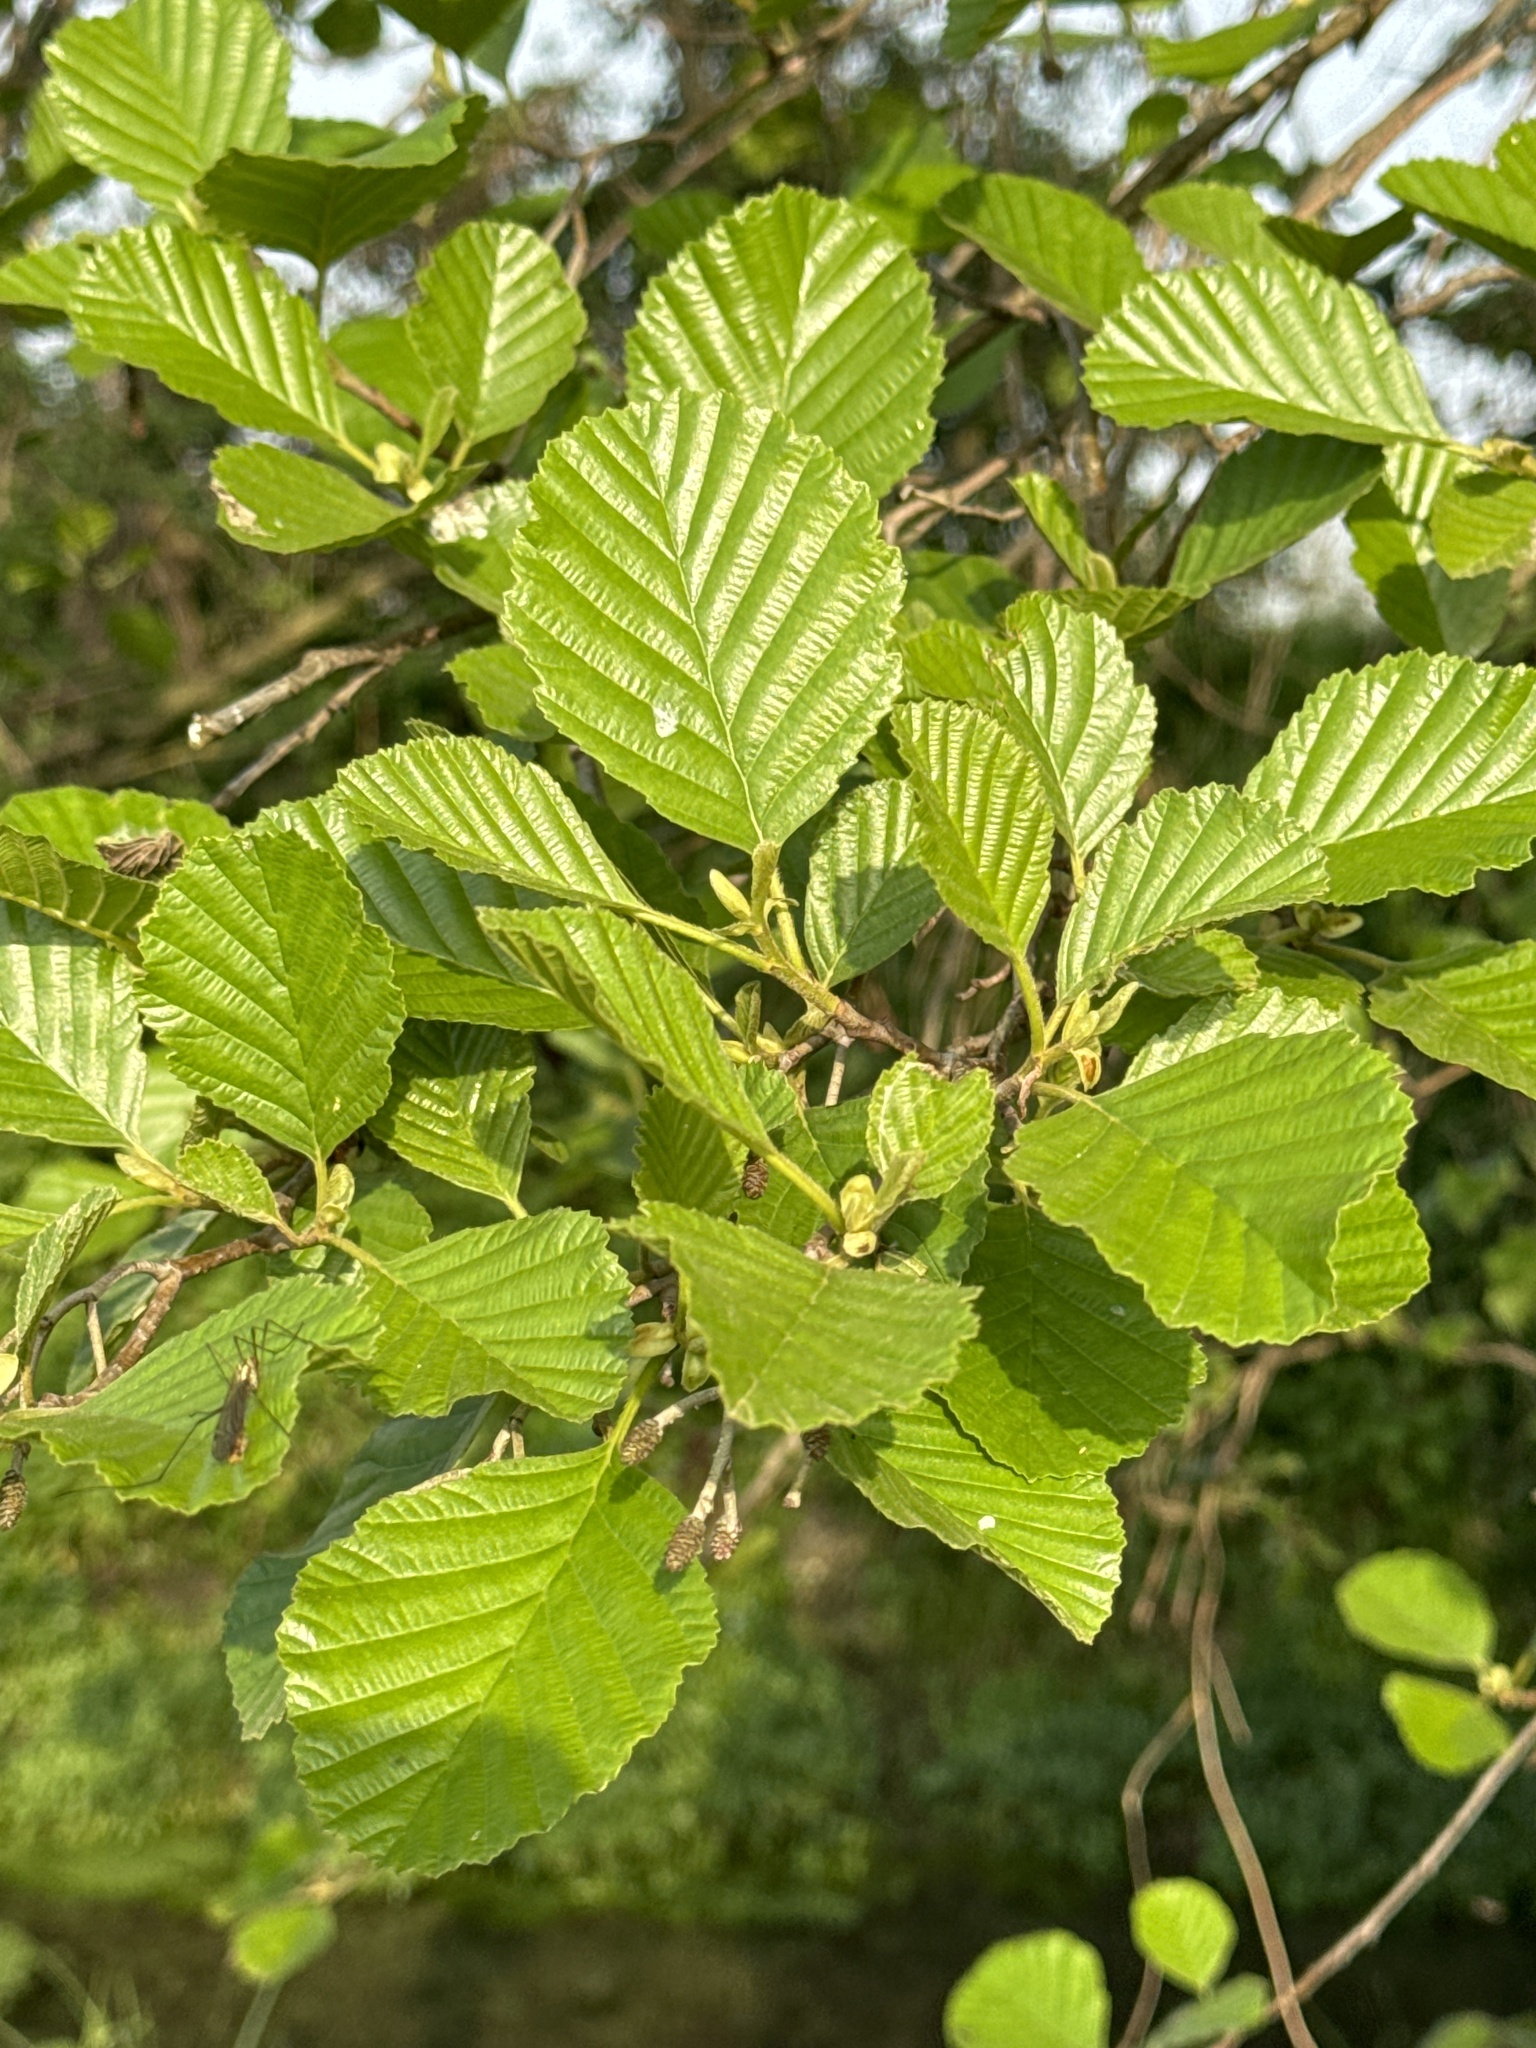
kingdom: Plantae
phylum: Tracheophyta
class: Magnoliopsida
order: Fagales
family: Betulaceae
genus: Alnus
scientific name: Alnus glutinosa
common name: Black alder
